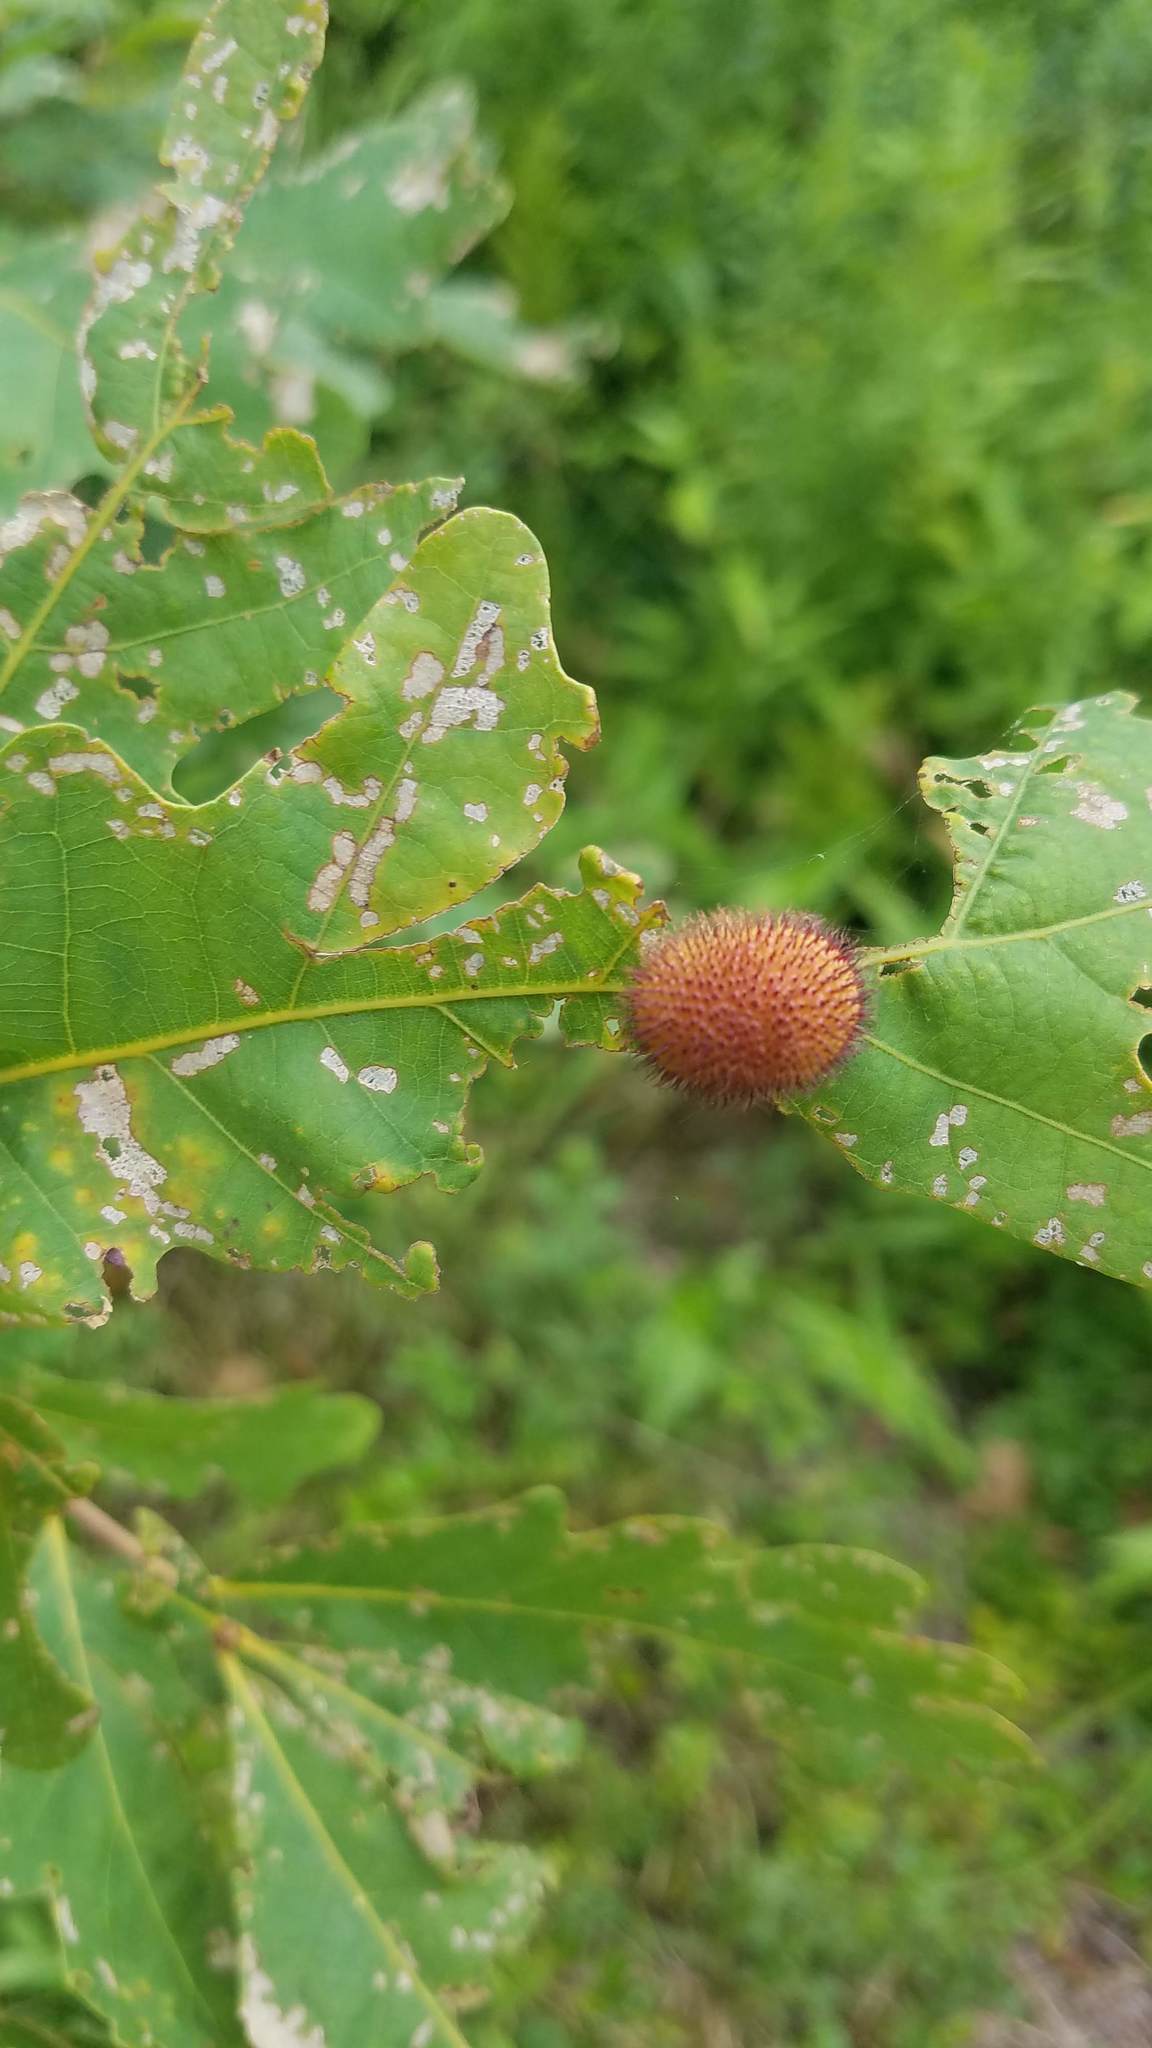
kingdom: Animalia
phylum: Arthropoda
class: Insecta
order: Hymenoptera
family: Cynipidae
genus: Acraspis
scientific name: Acraspis erinacei
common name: Hedgehog gall wasp
